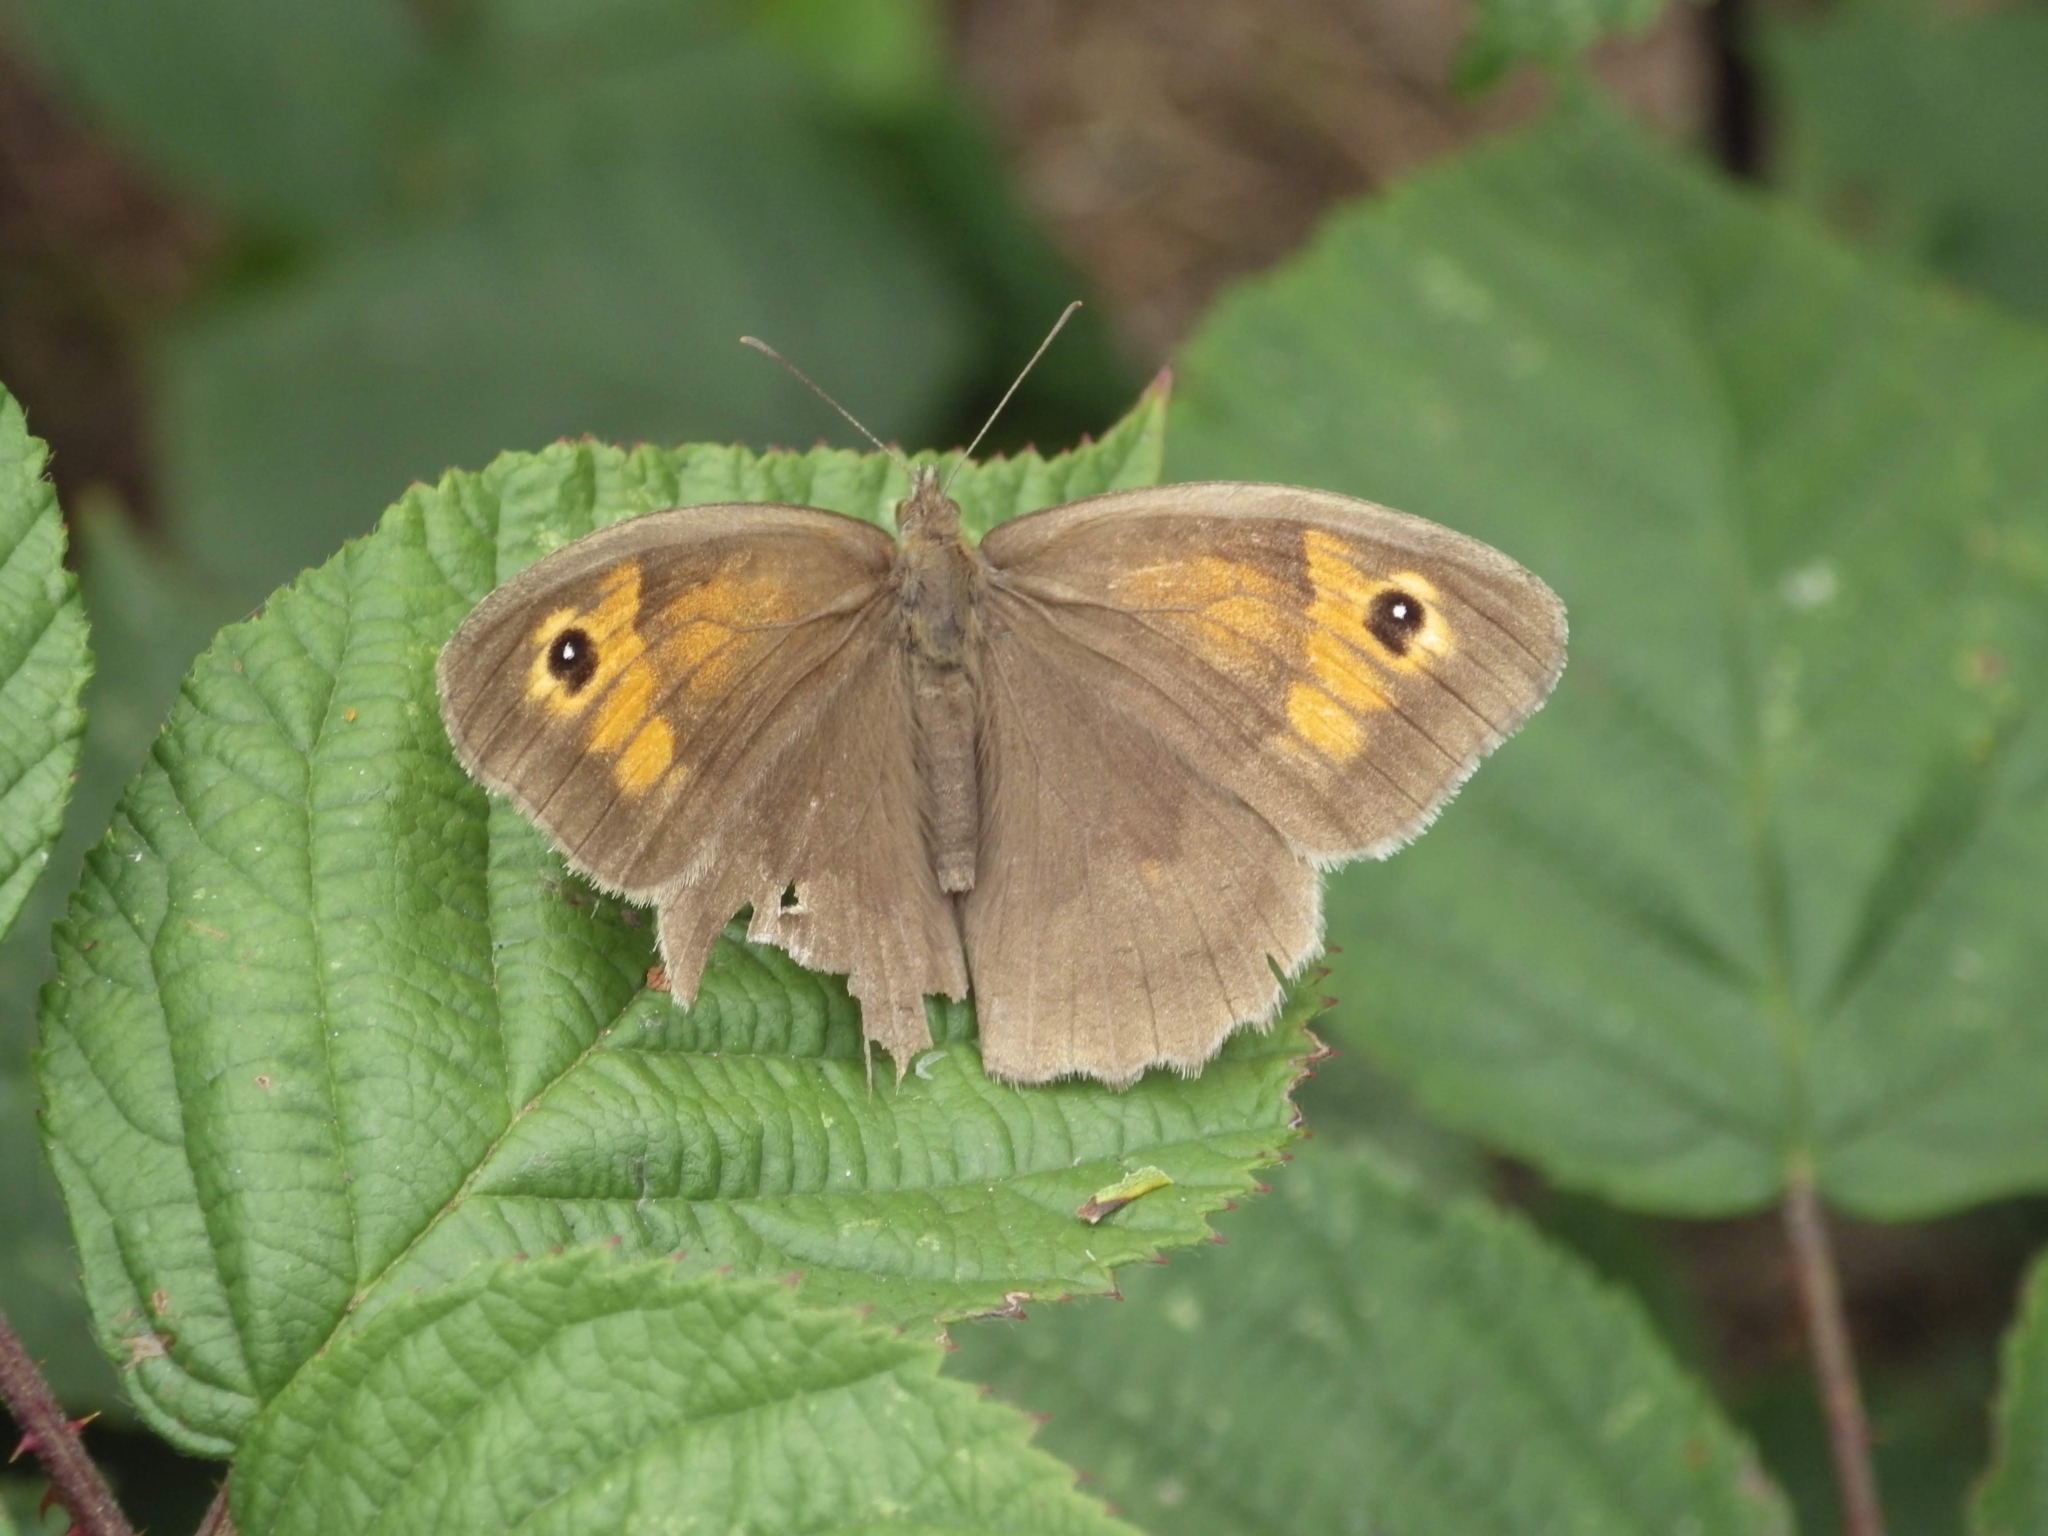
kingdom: Animalia
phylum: Arthropoda
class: Insecta
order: Lepidoptera
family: Nymphalidae
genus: Maniola
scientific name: Maniola jurtina
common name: Meadow brown
